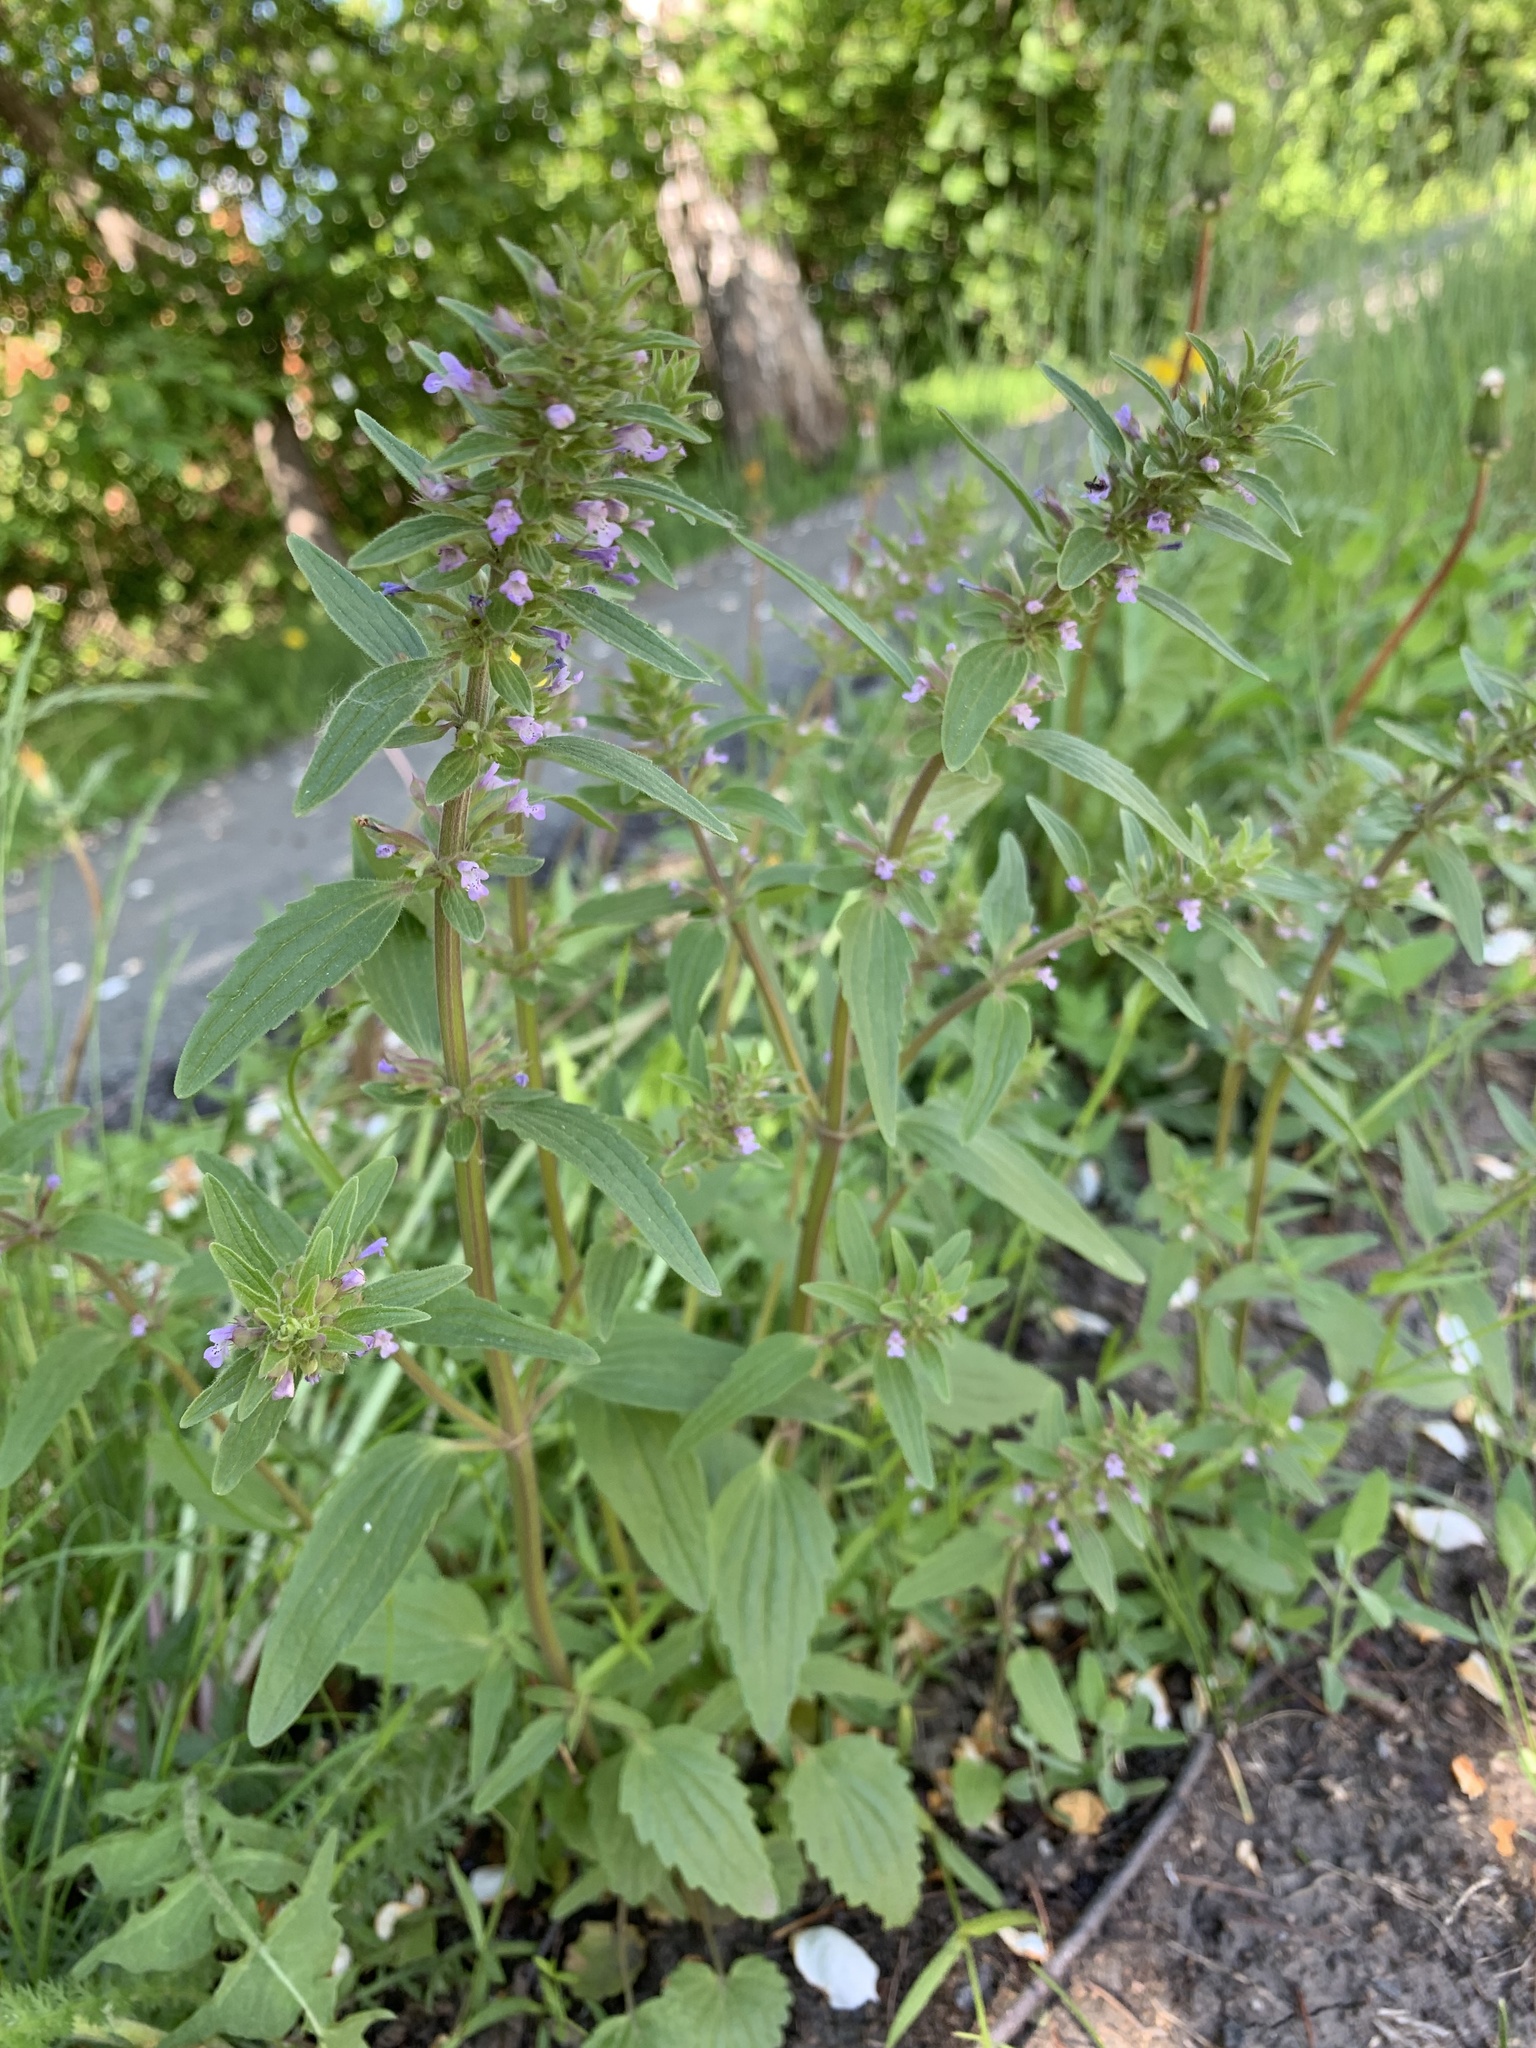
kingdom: Plantae
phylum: Tracheophyta
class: Magnoliopsida
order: Lamiales
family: Lamiaceae
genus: Dracocephalum
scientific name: Dracocephalum thymiflorum
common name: Thymeleaf dragonhead
